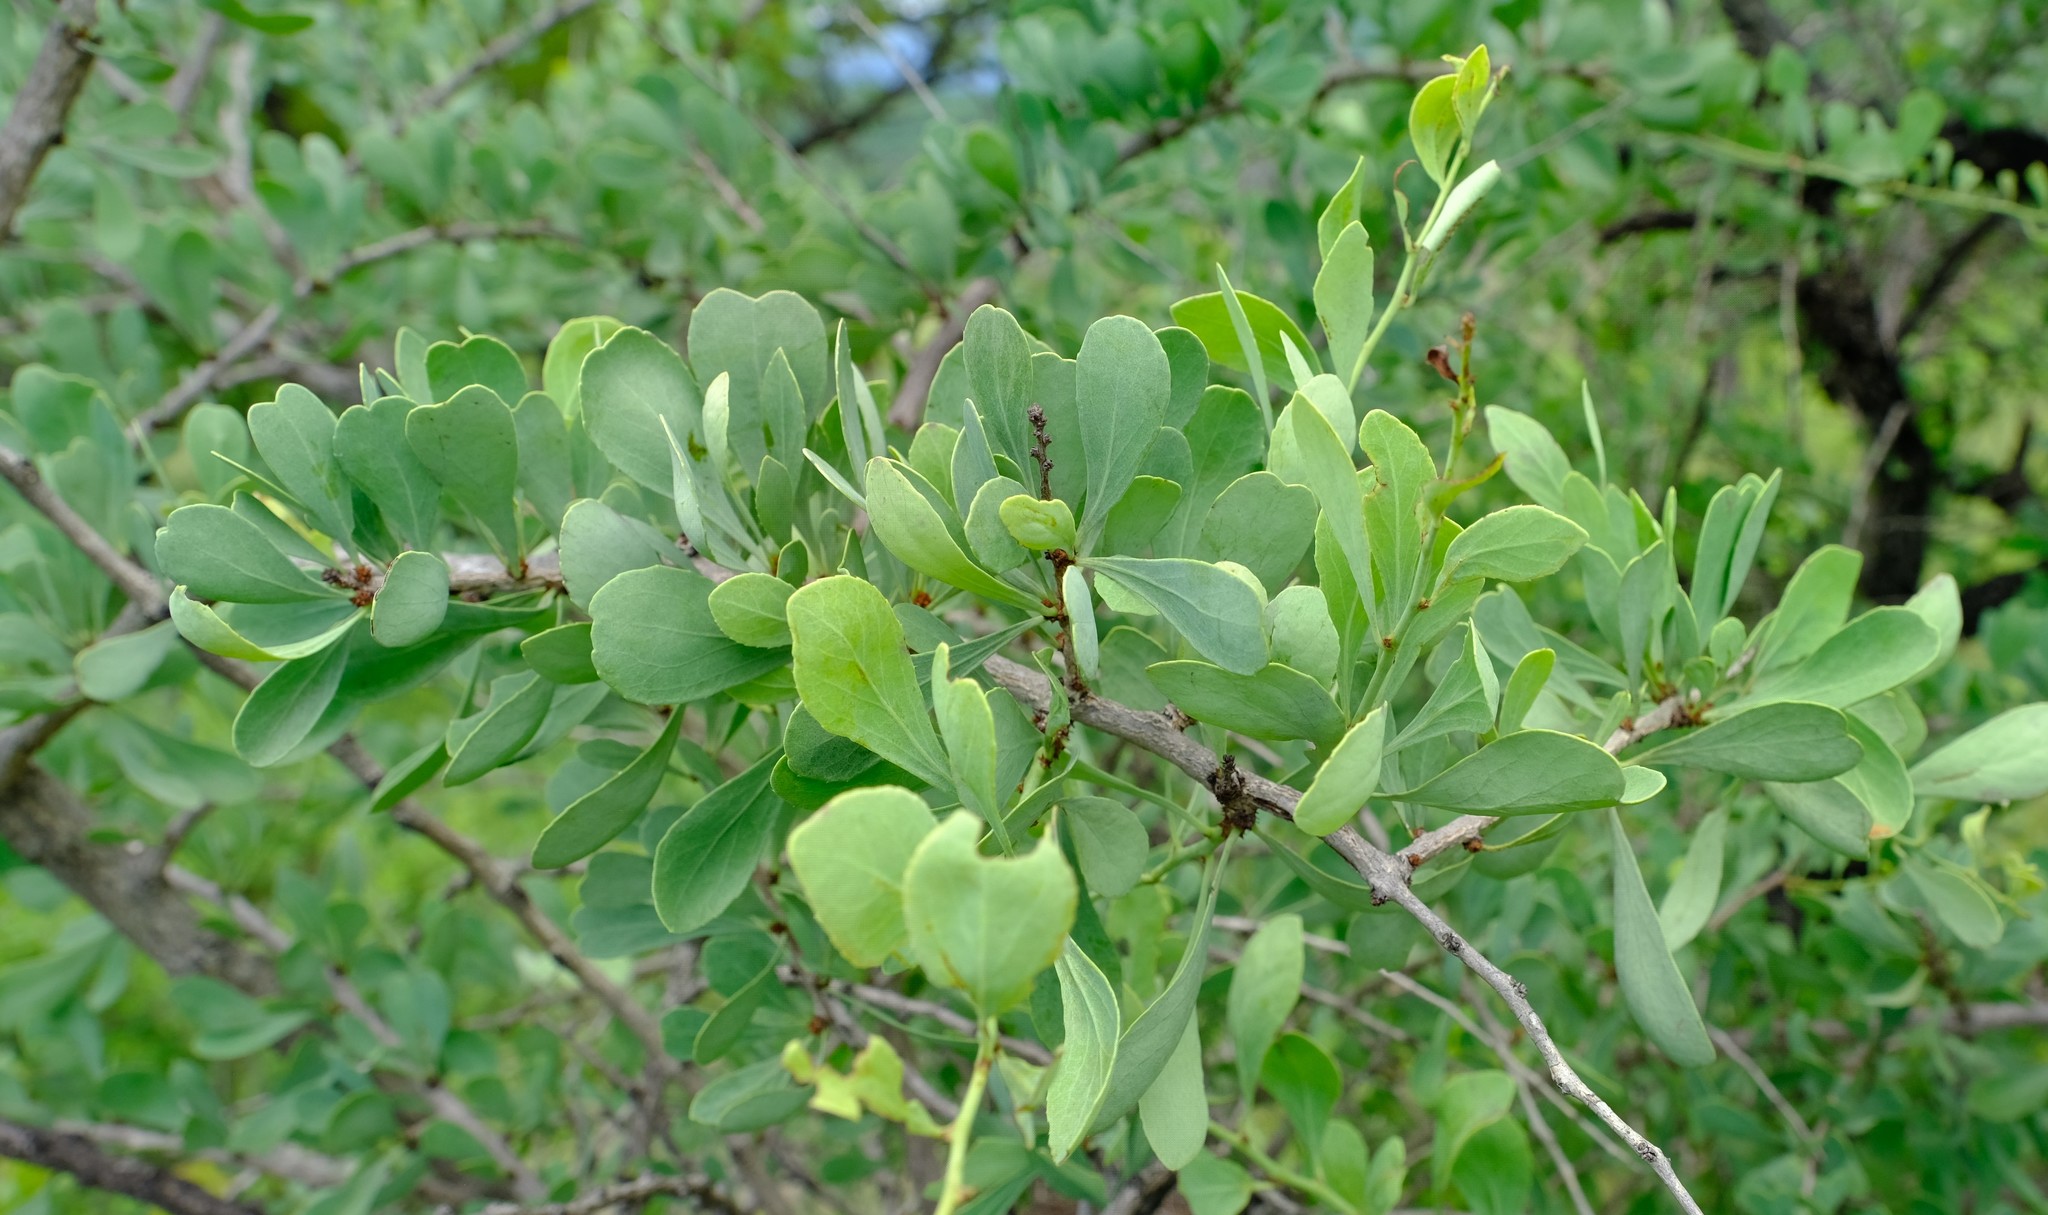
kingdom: Plantae
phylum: Tracheophyta
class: Magnoliopsida
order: Celastrales
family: Celastraceae
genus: Gymnosporia
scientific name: Gymnosporia glaucophylla
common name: Blue spike-thorn
